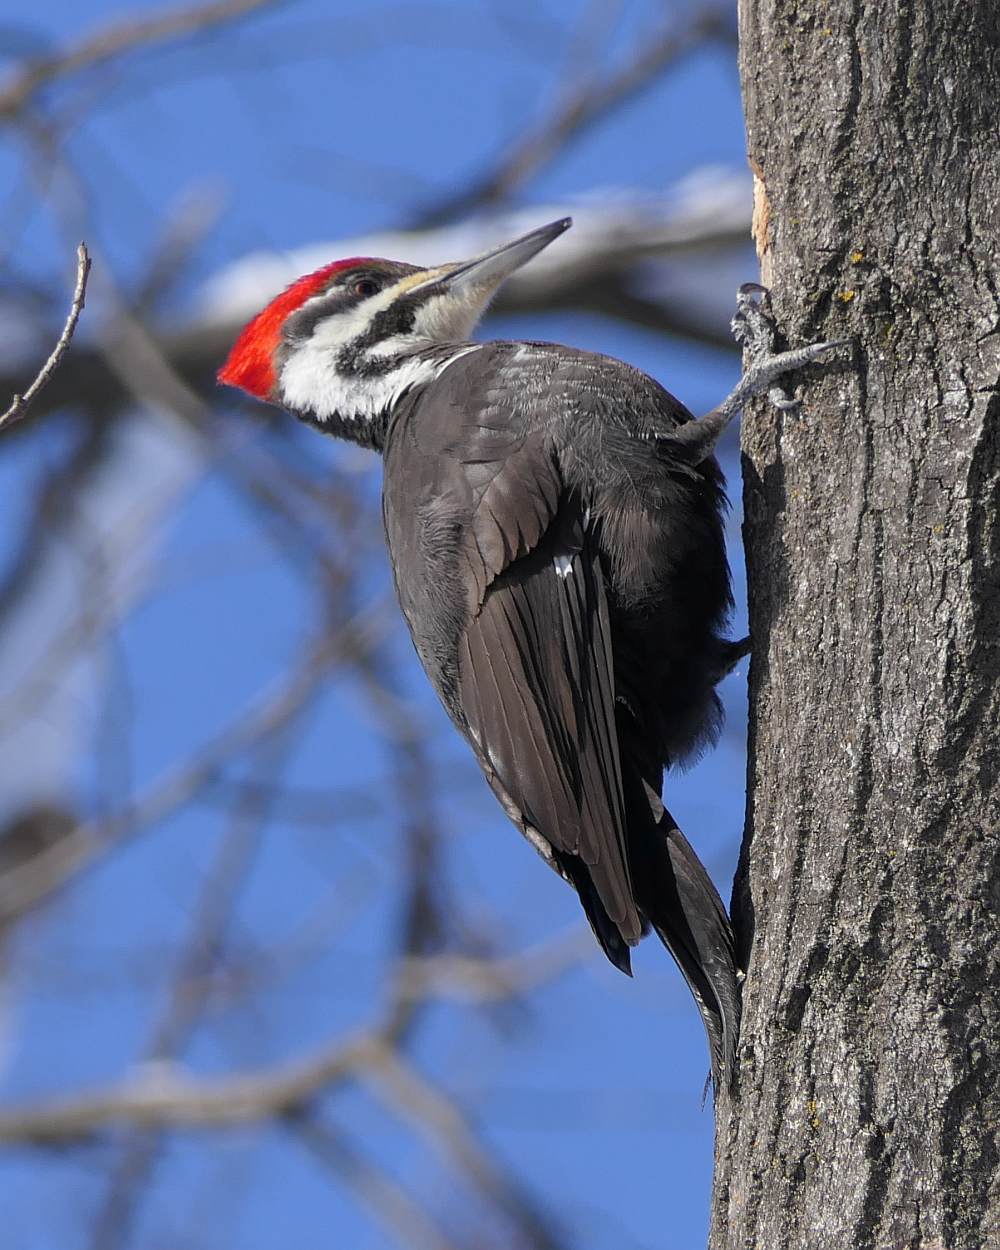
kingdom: Animalia
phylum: Chordata
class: Aves
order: Piciformes
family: Picidae
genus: Dryocopus
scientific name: Dryocopus pileatus
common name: Pileated woodpecker
